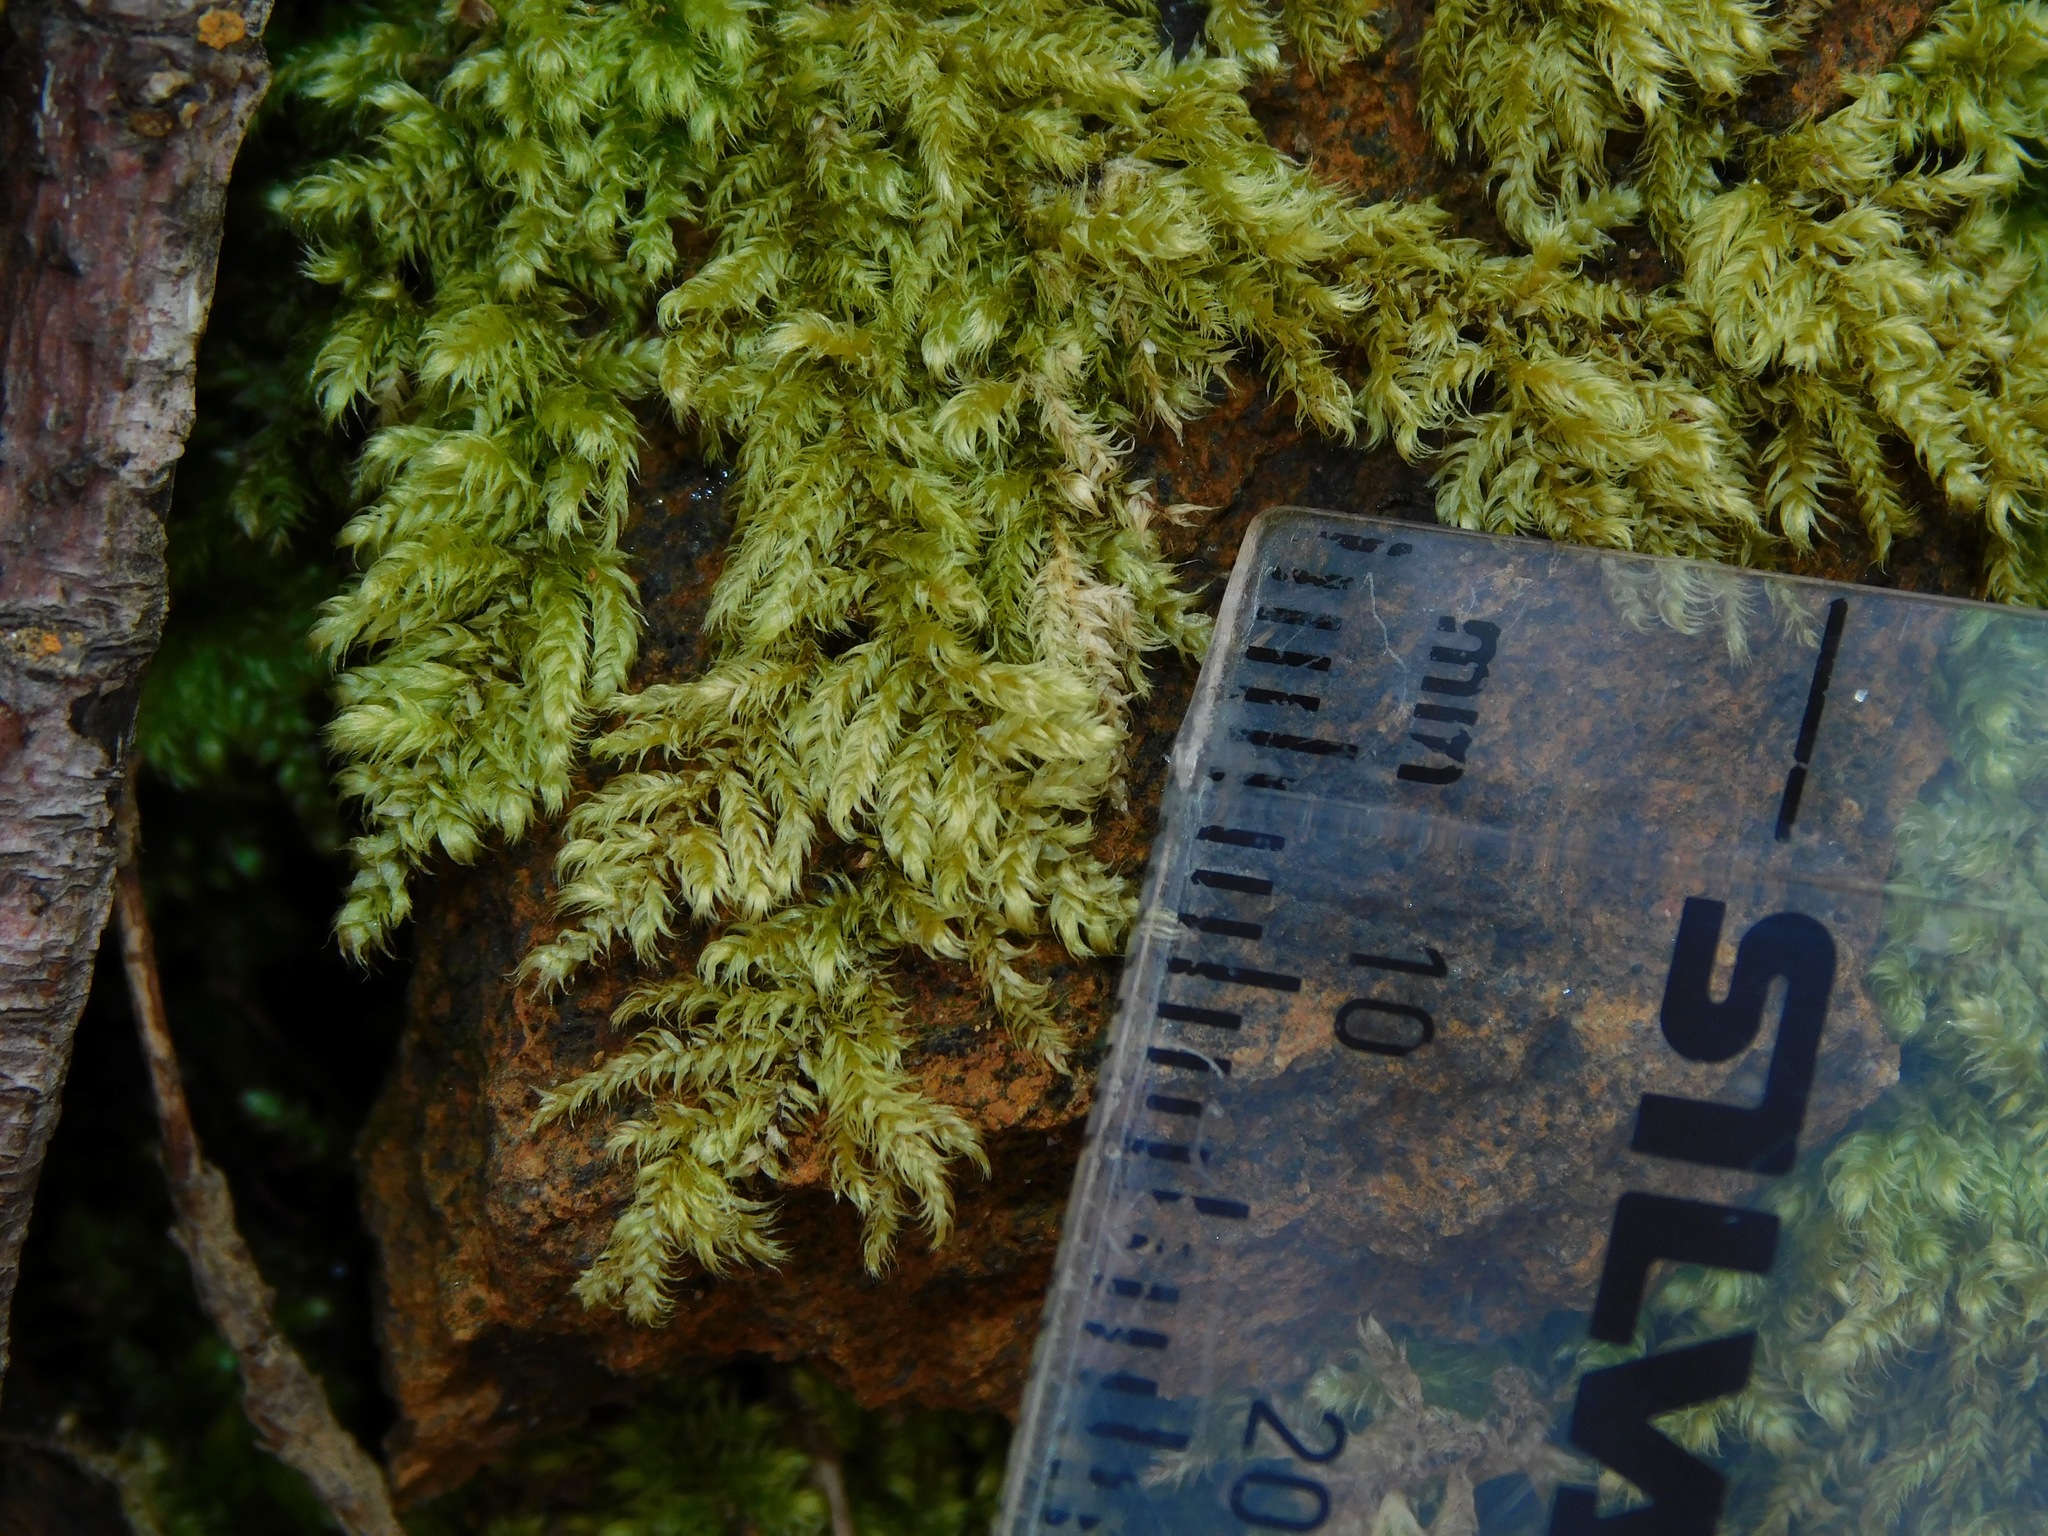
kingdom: Plantae
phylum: Bryophyta
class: Bryopsida
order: Hypnales
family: Jocheniaceae
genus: Jochenia
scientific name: Jochenia pallescens
